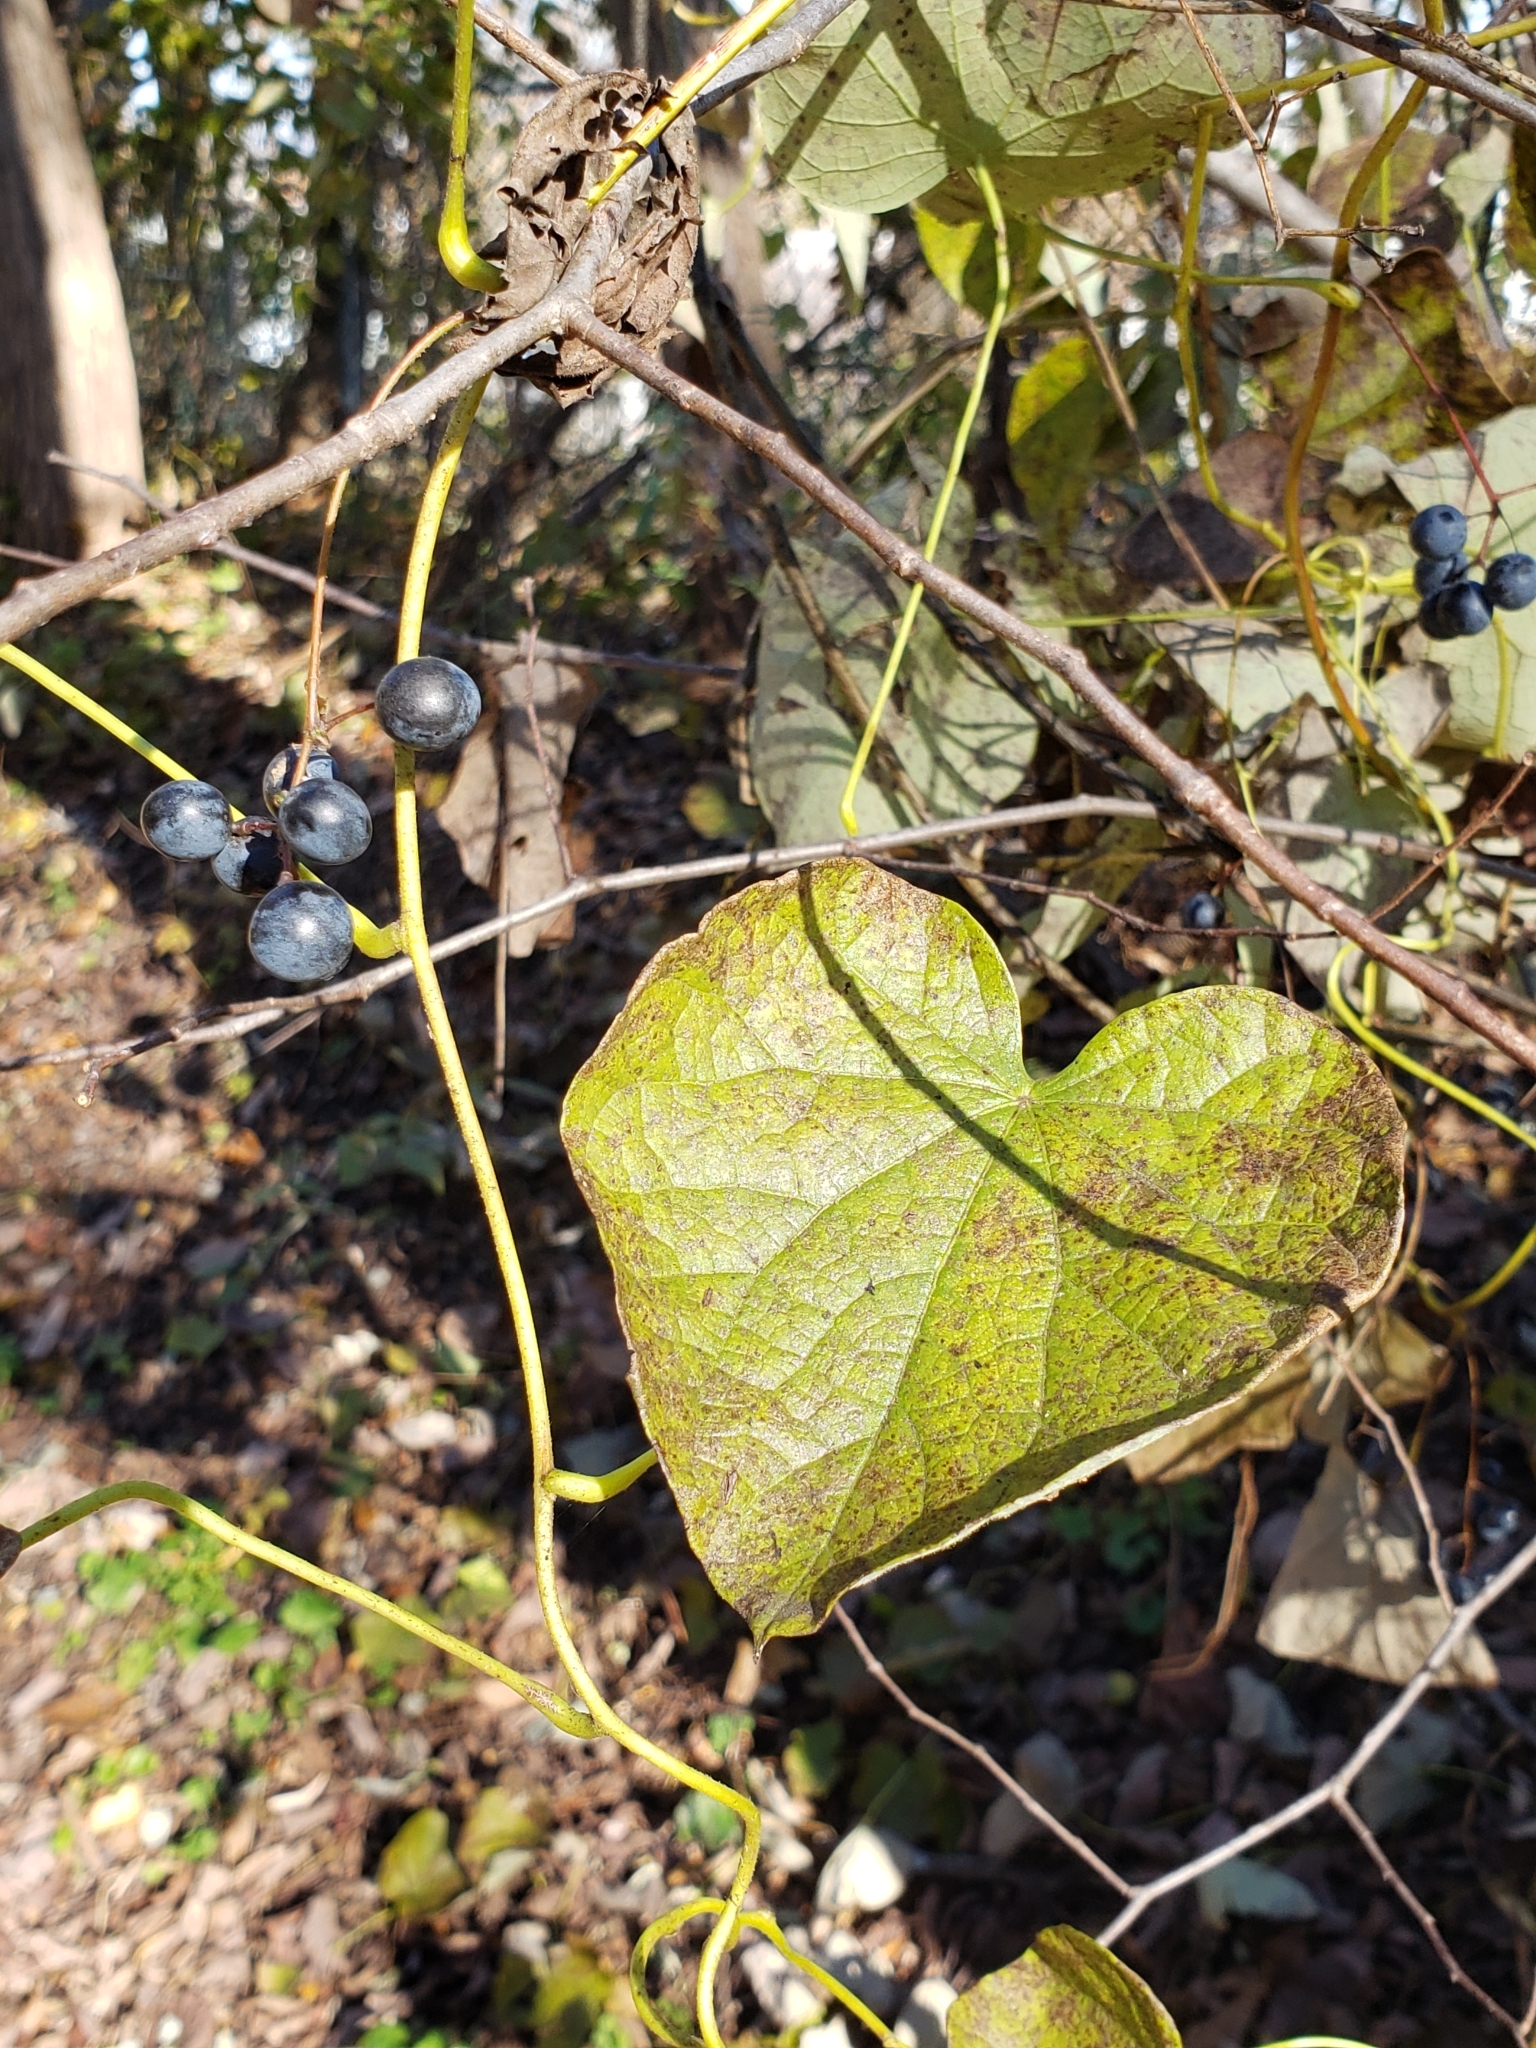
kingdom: Plantae
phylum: Tracheophyta
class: Magnoliopsida
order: Ranunculales
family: Menispermaceae
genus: Menispermum
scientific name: Menispermum canadense
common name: Moonseed
